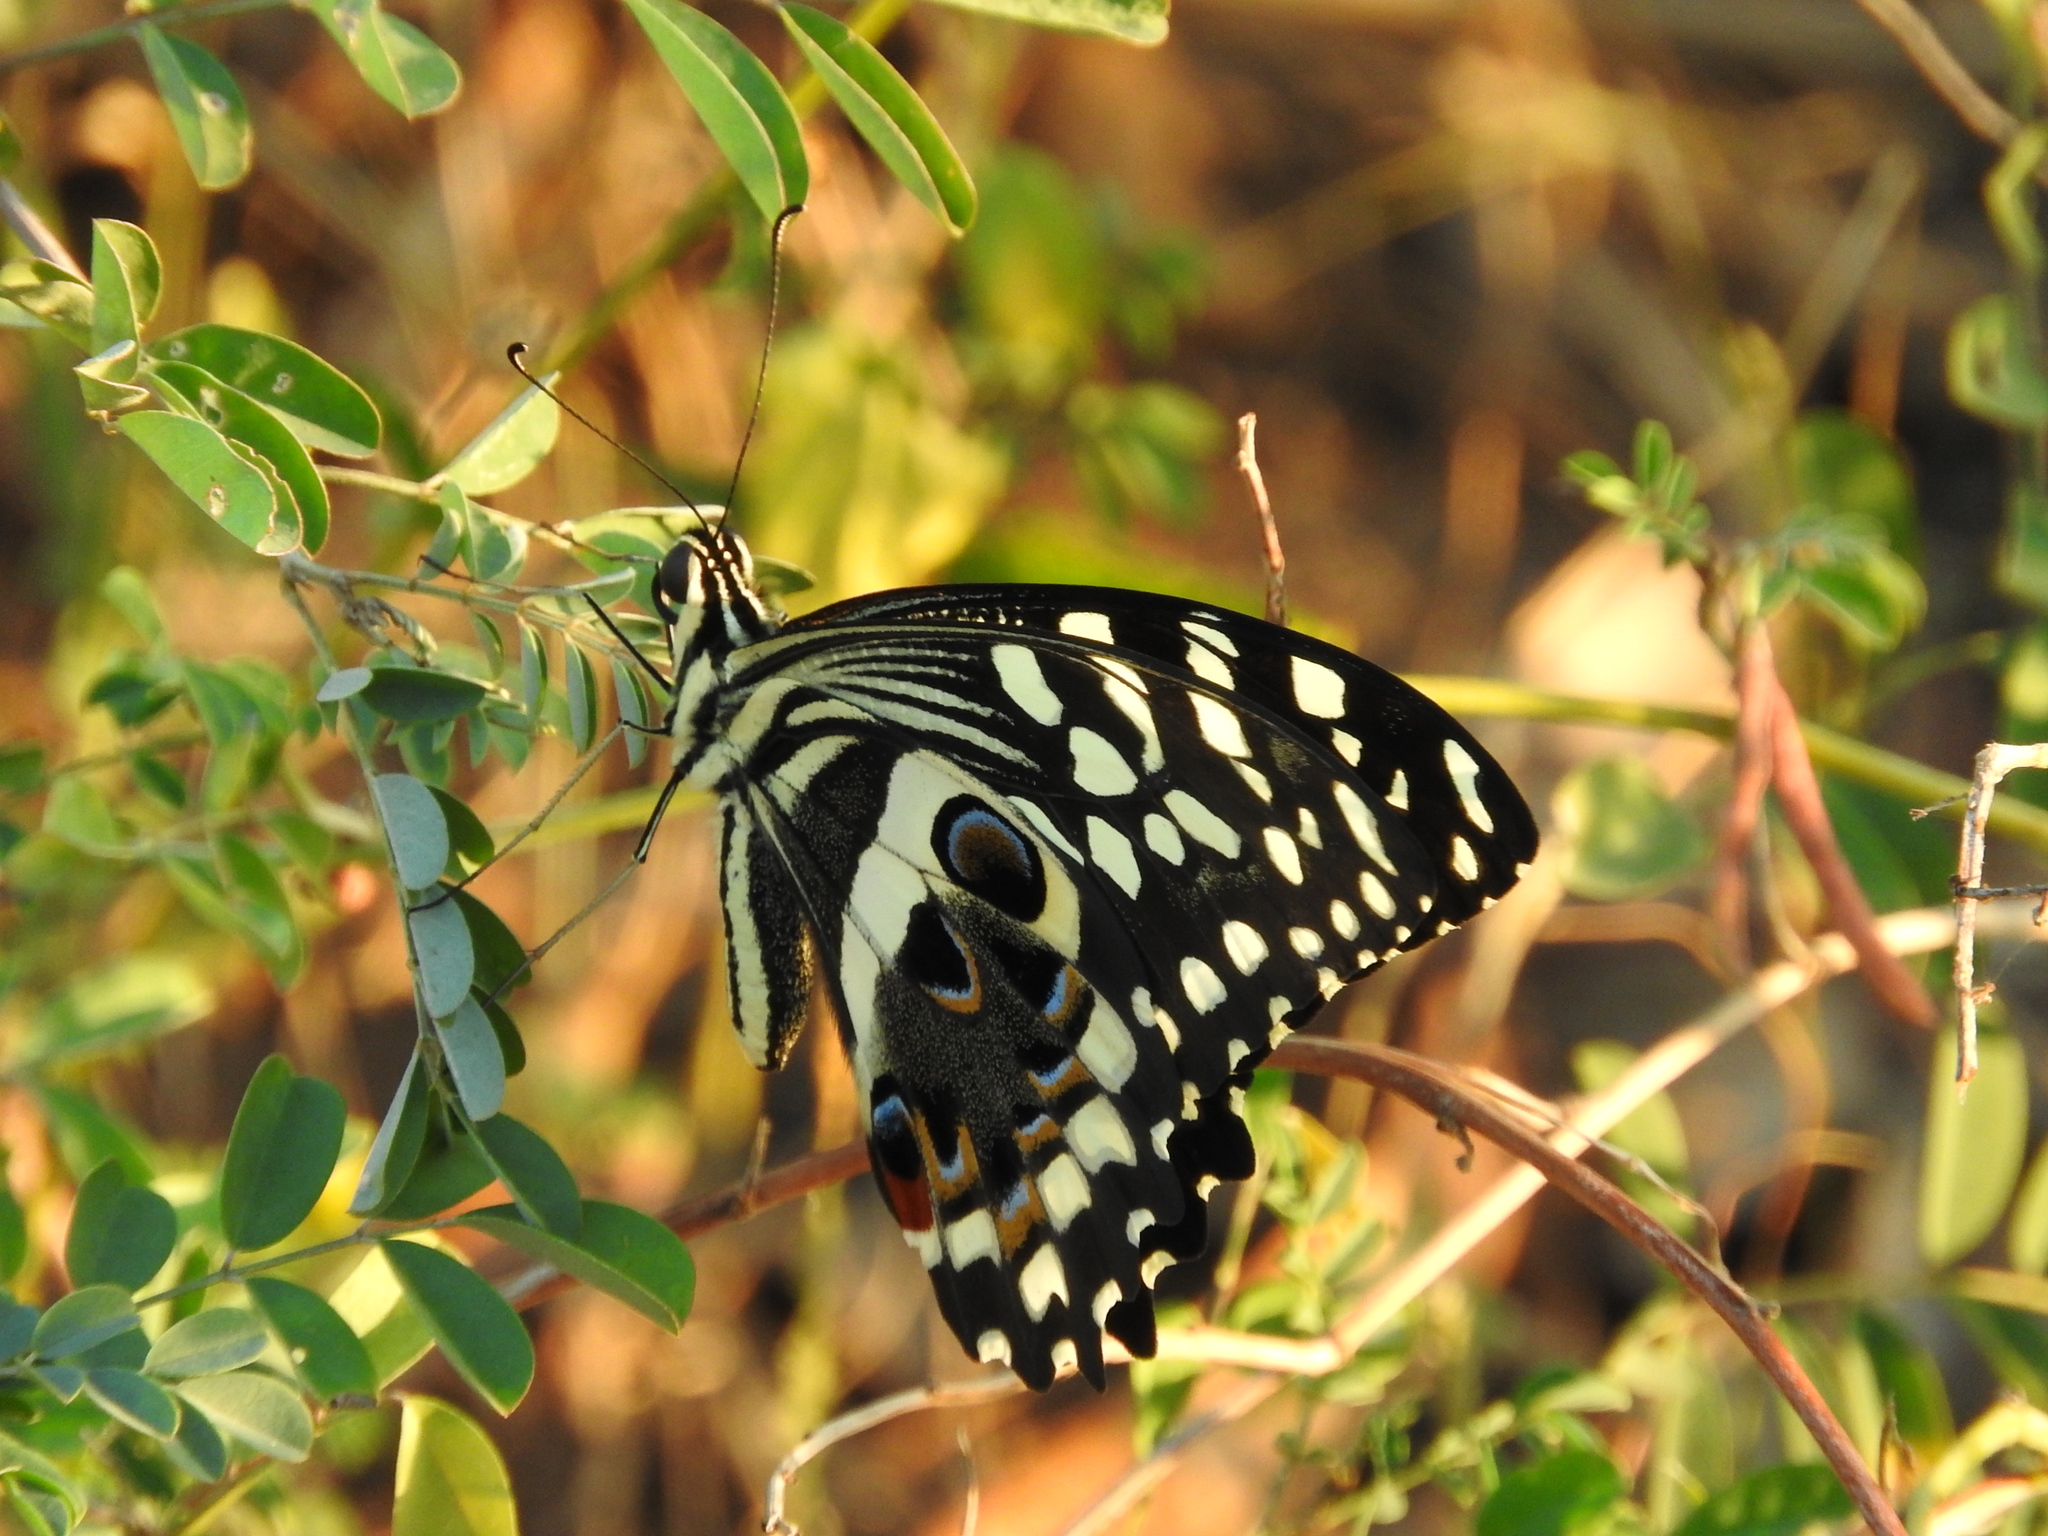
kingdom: Animalia
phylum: Arthropoda
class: Insecta
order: Lepidoptera
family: Papilionidae
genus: Papilio
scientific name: Papilio demodocus
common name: Christmas butterfly
